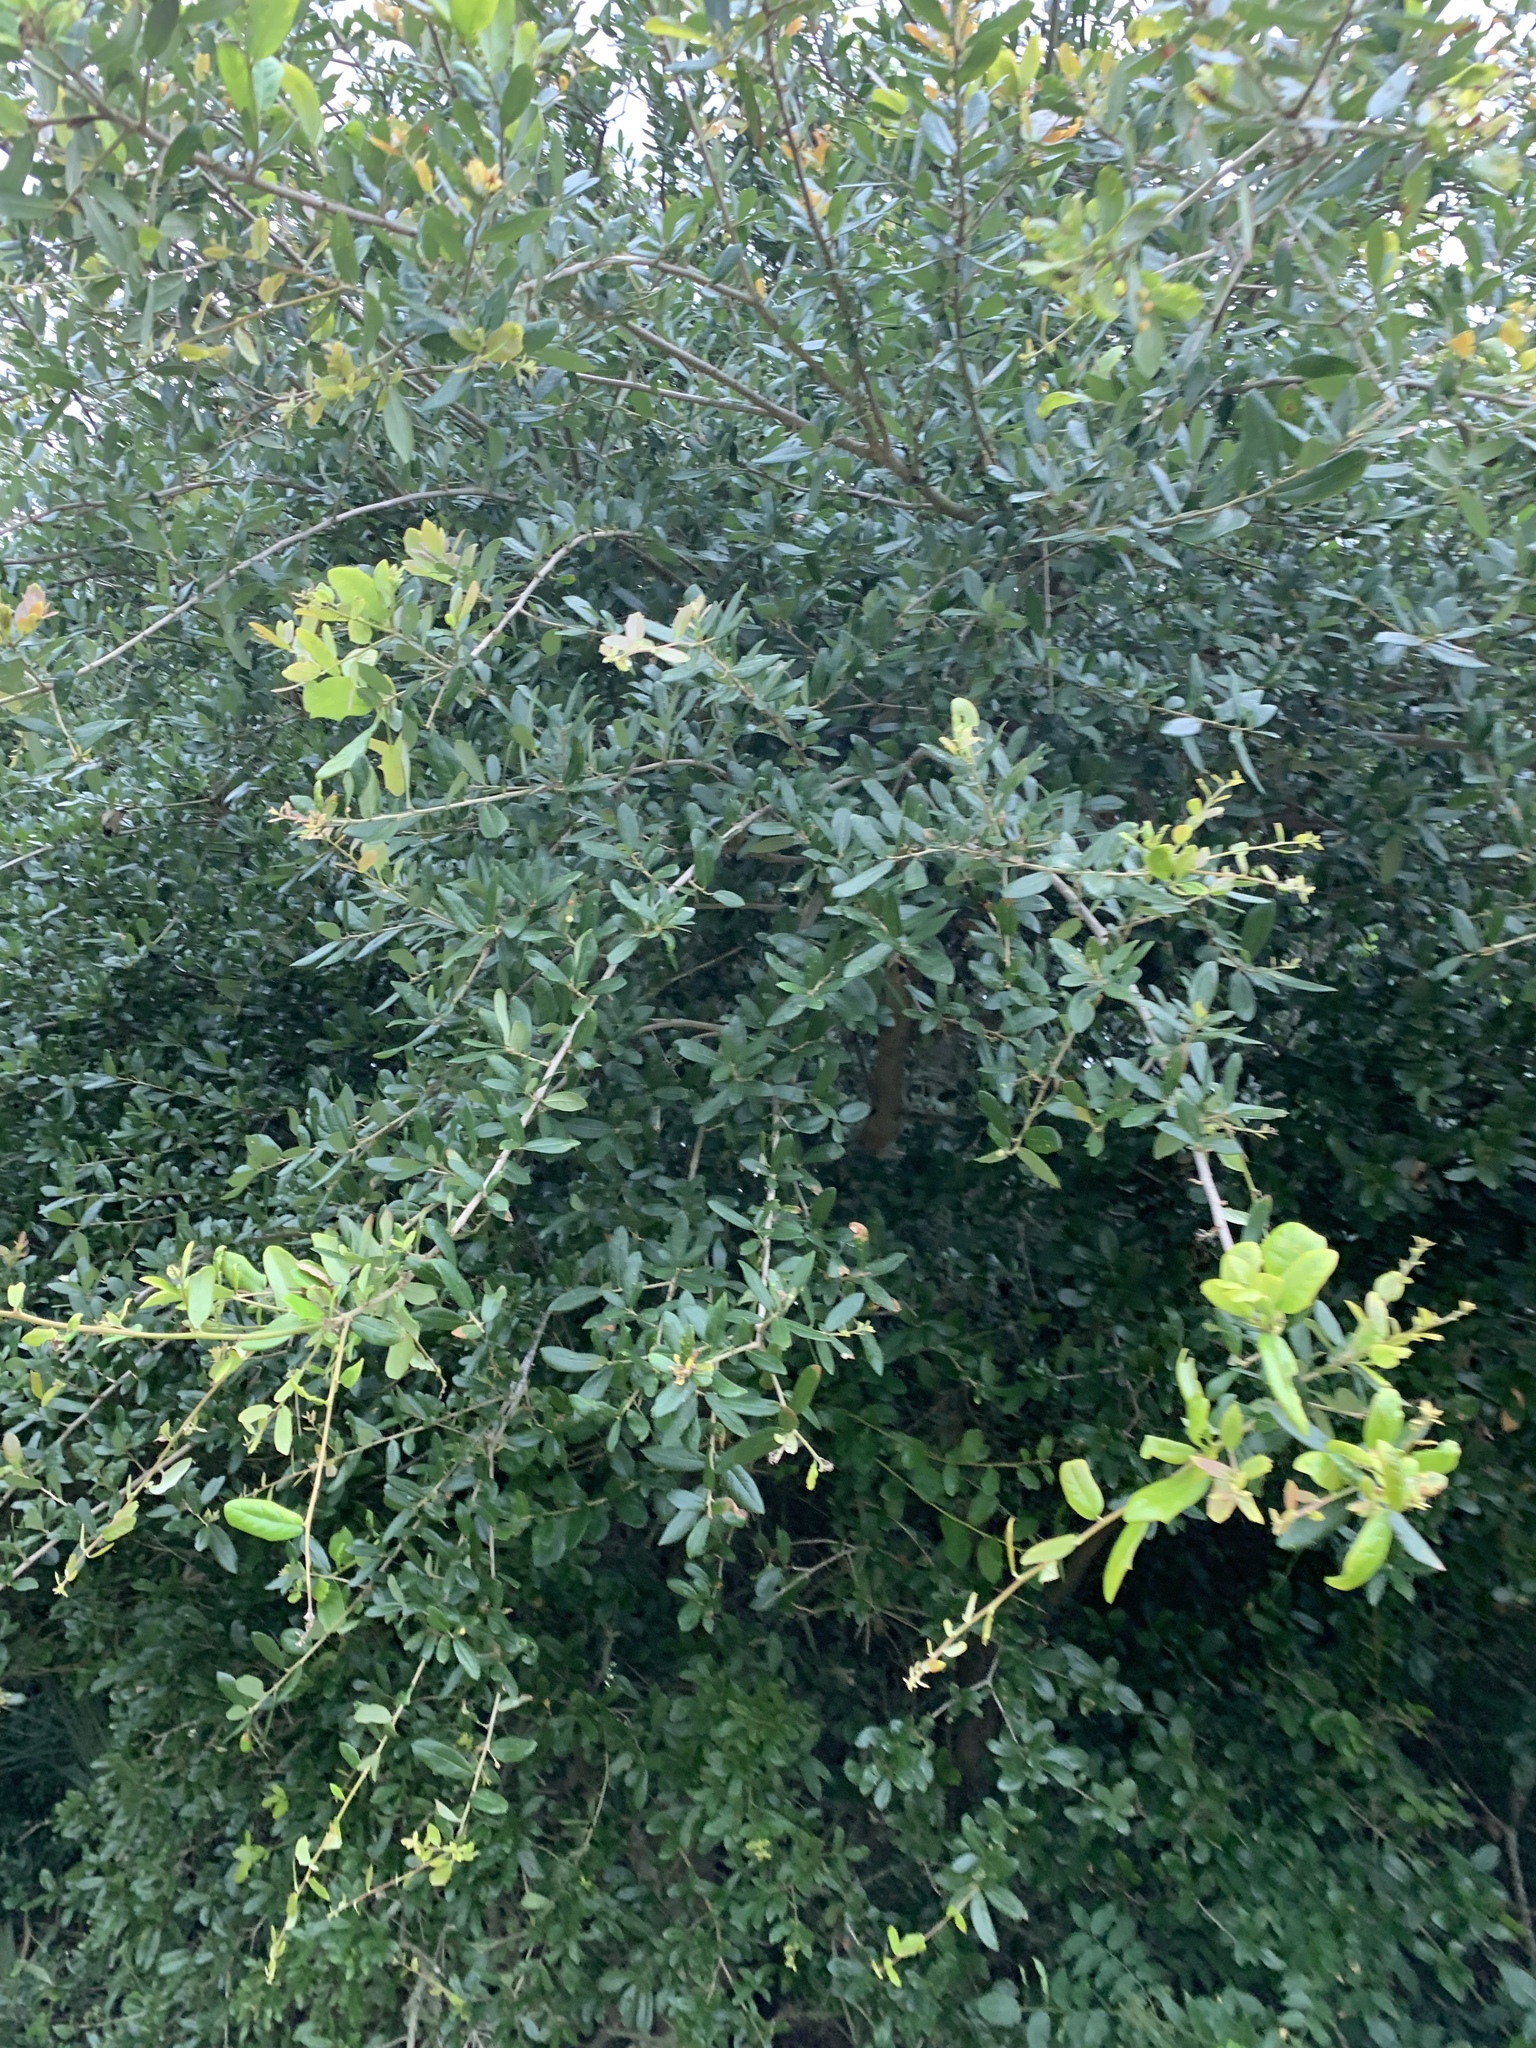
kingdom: Plantae
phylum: Tracheophyta
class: Magnoliopsida
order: Fagales
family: Fagaceae
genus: Quercus
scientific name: Quercus virginiana
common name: Southern live oak
